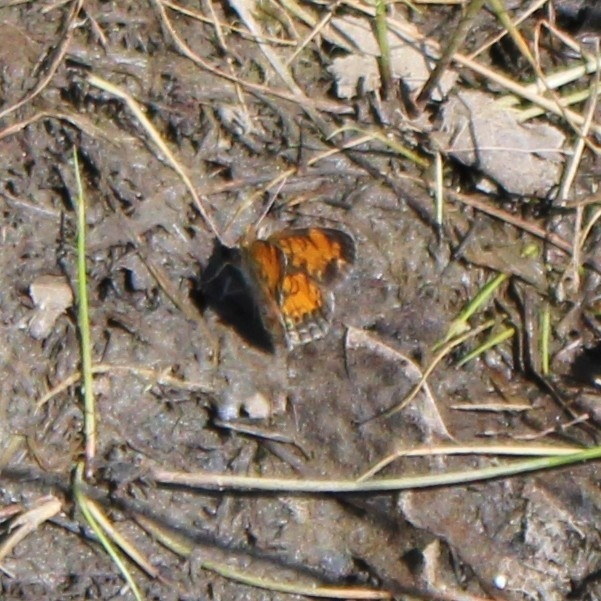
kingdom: Animalia
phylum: Arthropoda
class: Insecta
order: Lepidoptera
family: Nymphalidae
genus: Phyciodes
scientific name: Phyciodes tharos
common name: Pearl crescent
